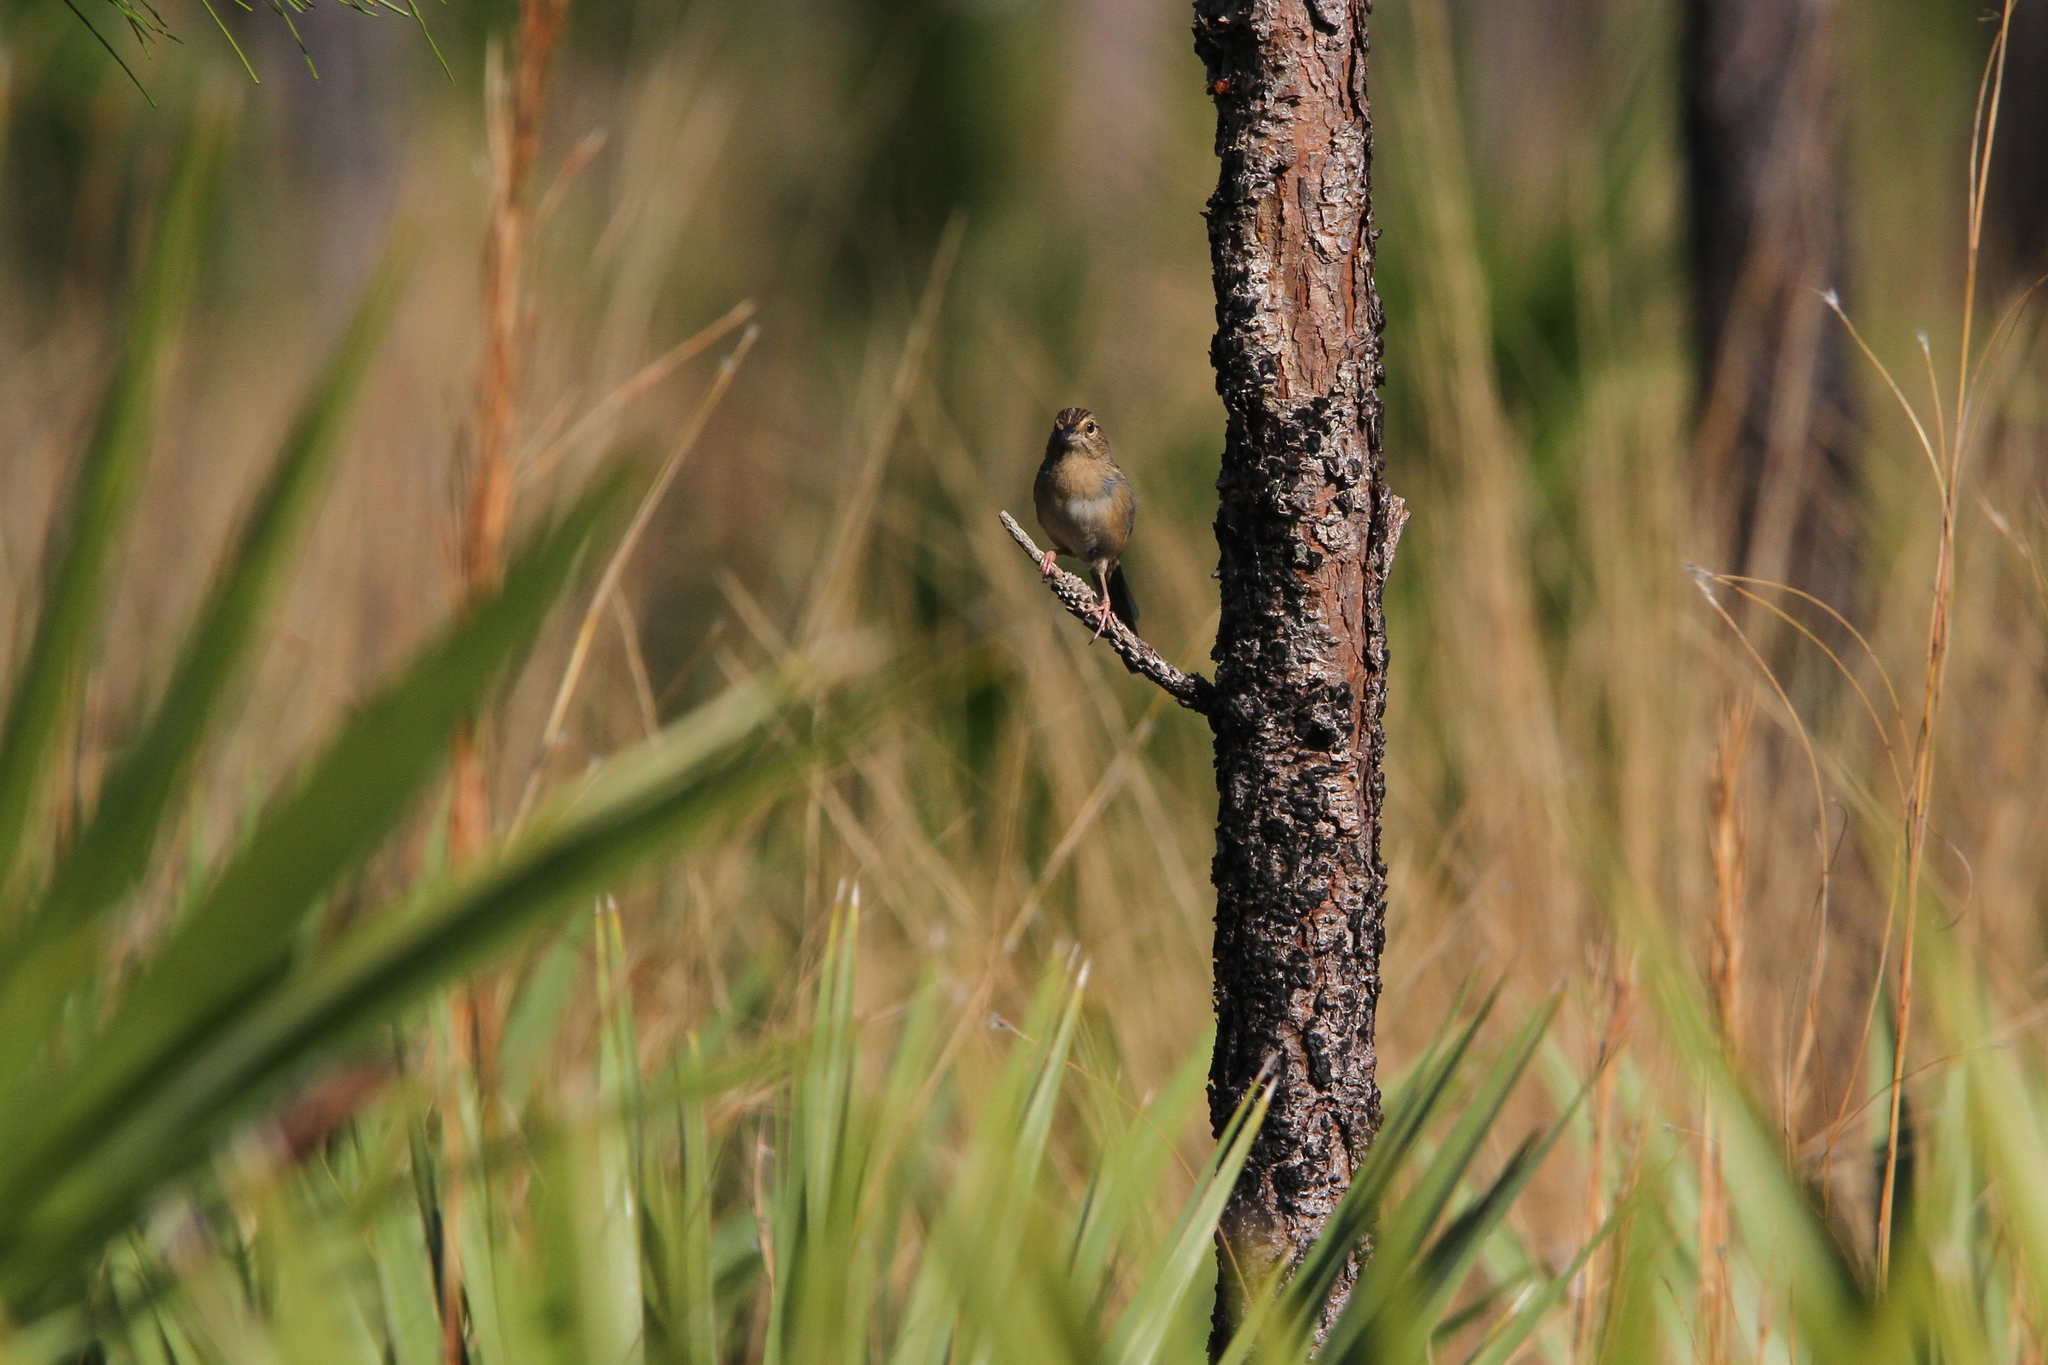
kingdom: Animalia
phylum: Chordata
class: Aves
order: Passeriformes
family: Passerellidae
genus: Peucaea
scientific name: Peucaea aestivalis
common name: Bachman's sparrow
